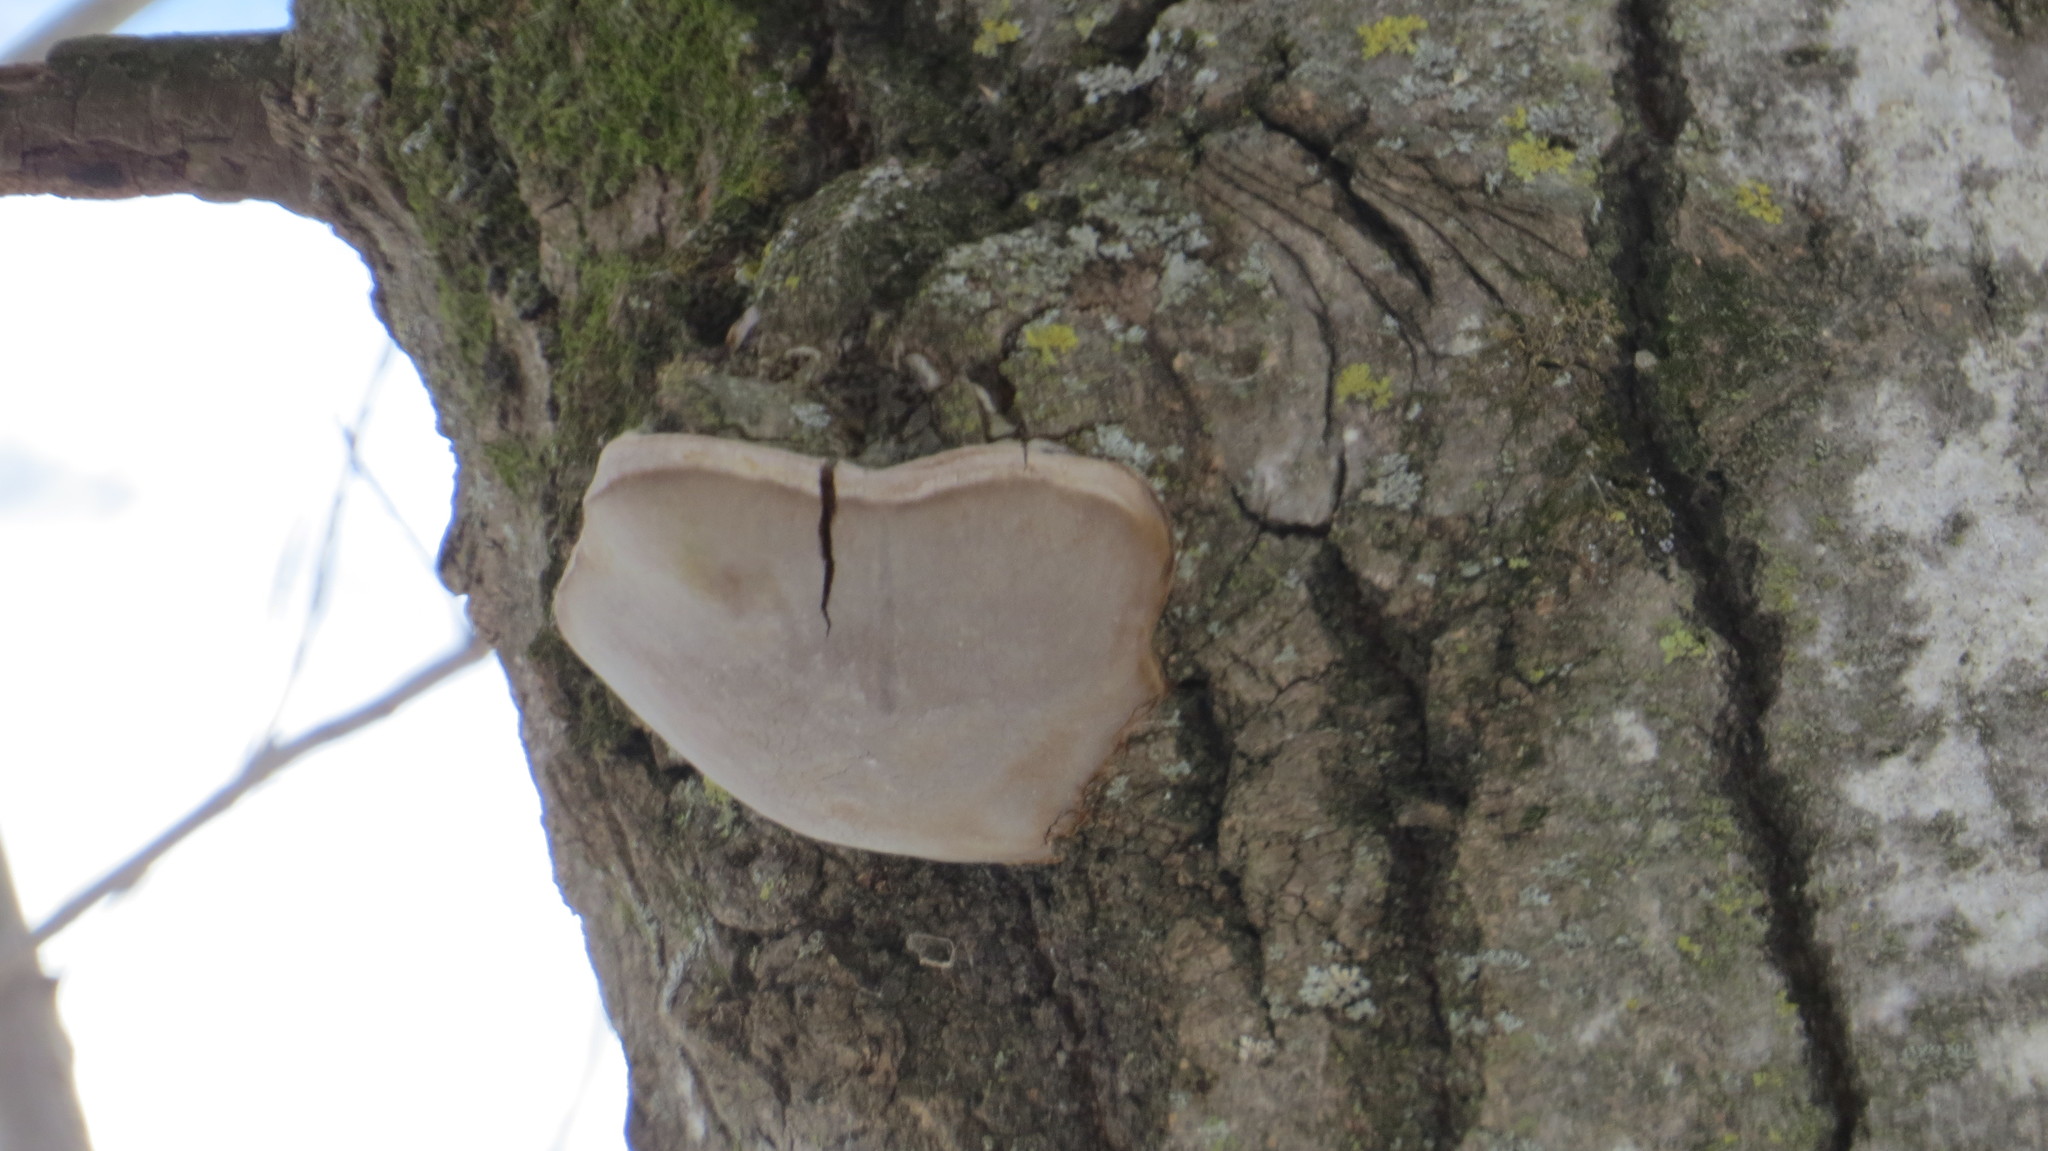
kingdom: Fungi
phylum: Basidiomycota
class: Agaricomycetes
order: Hymenochaetales
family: Hymenochaetaceae
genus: Phellinus
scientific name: Phellinus tremulae
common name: Aspen bracket
